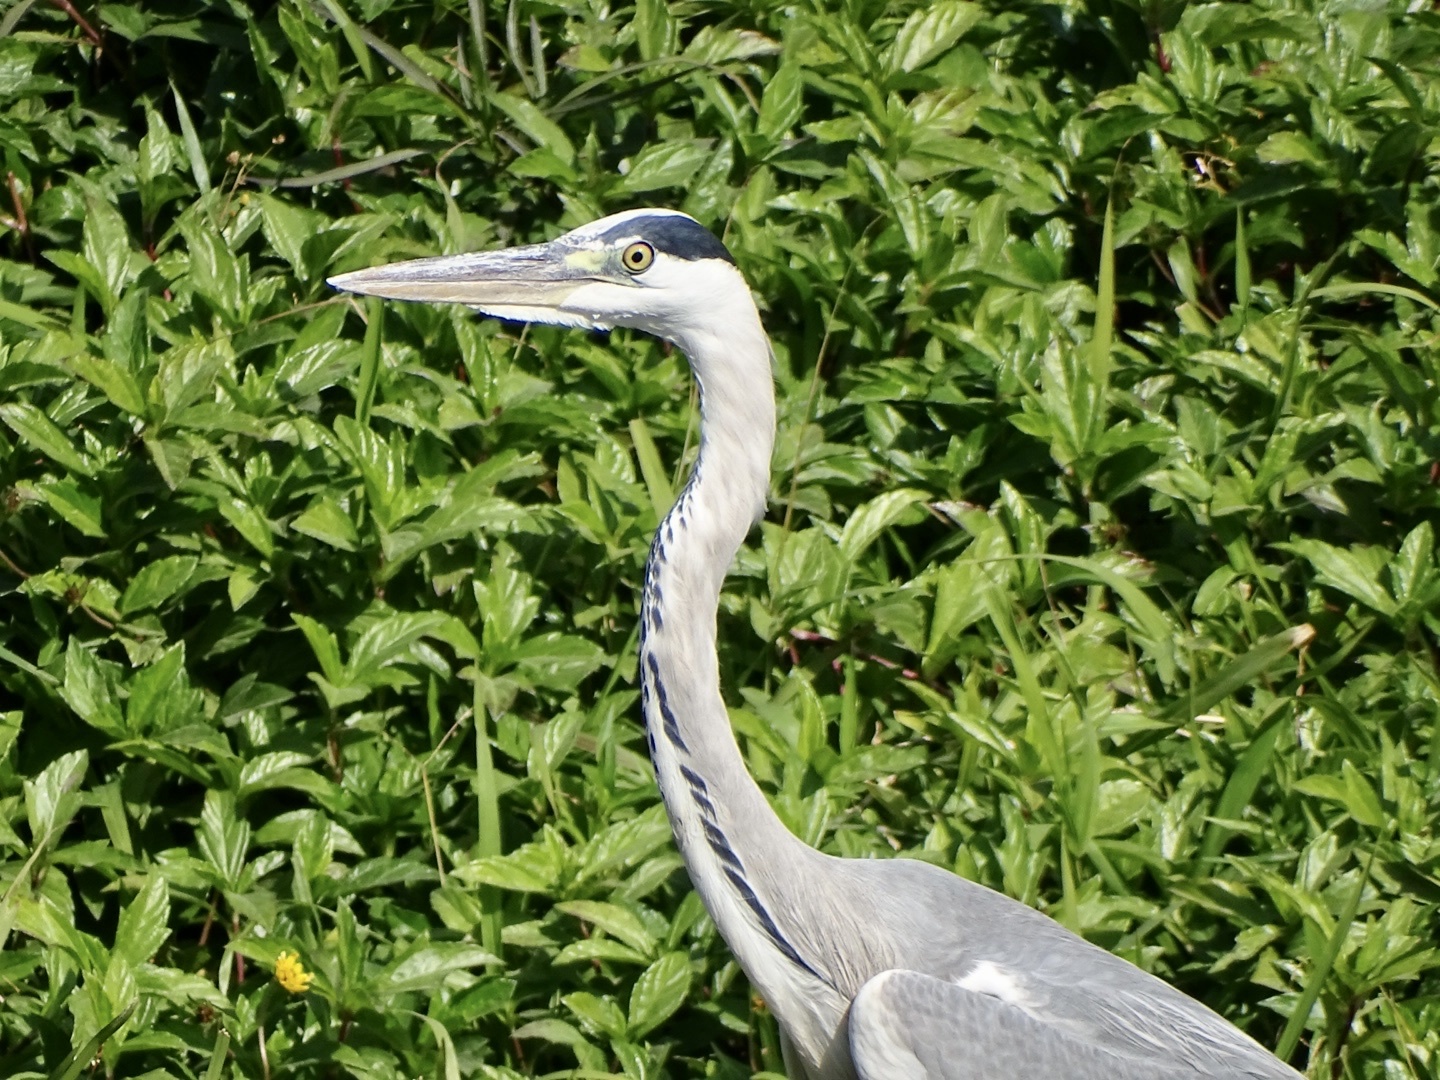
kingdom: Animalia
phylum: Chordata
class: Aves
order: Pelecaniformes
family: Ardeidae
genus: Ardea
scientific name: Ardea cinerea
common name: Grey heron
